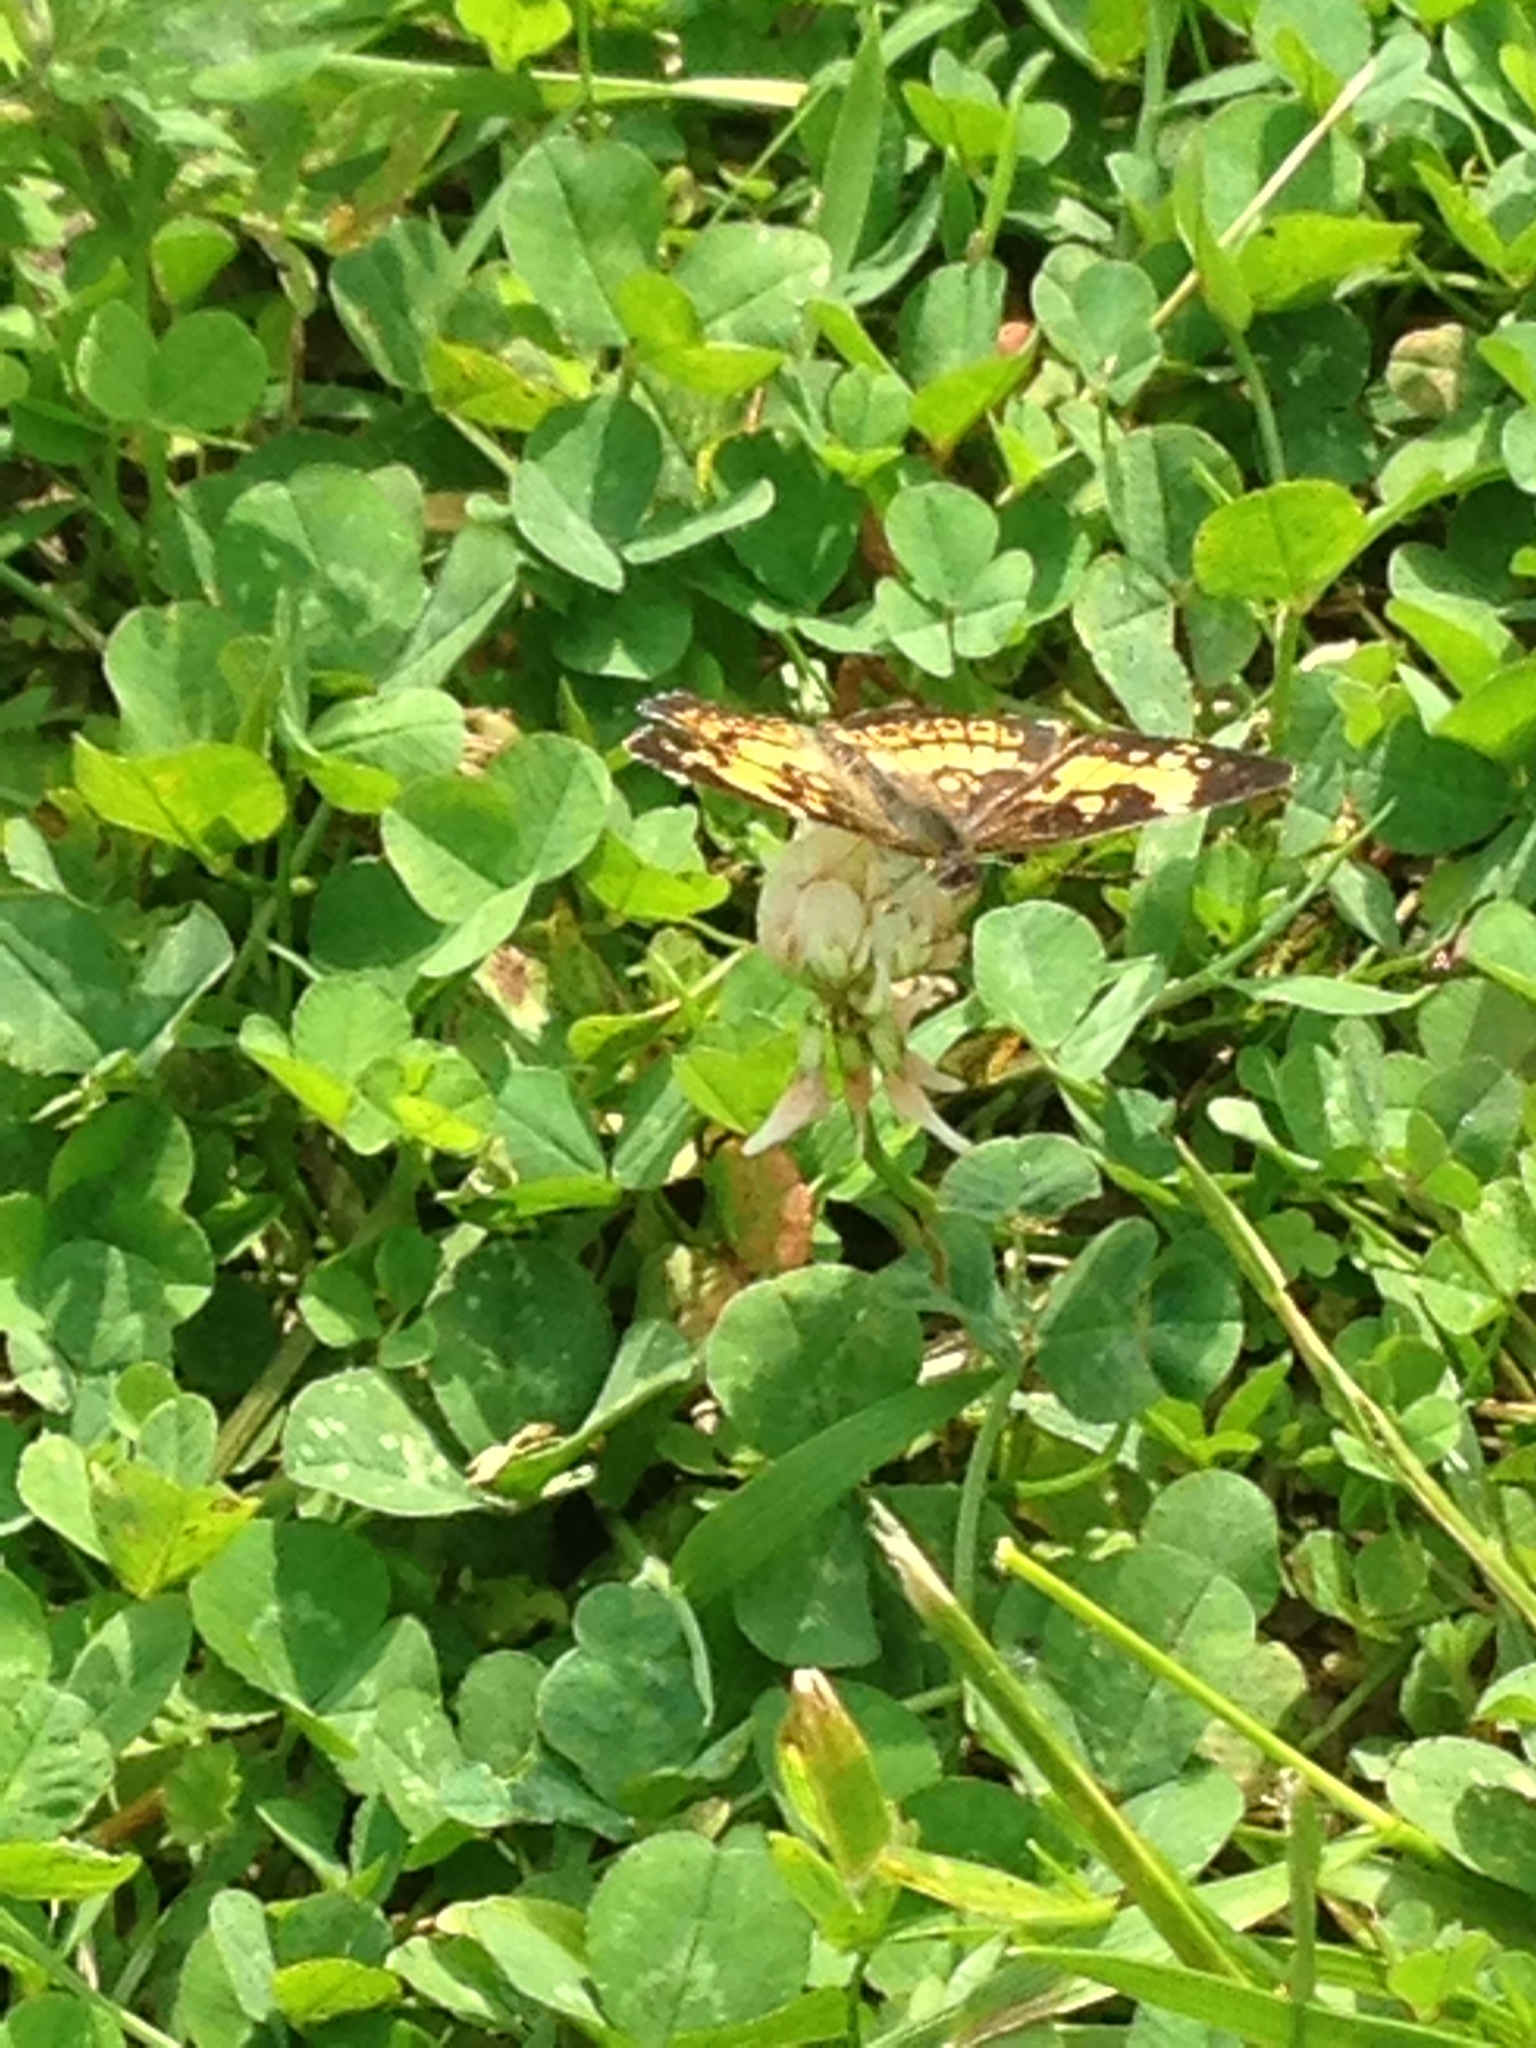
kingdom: Animalia
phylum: Arthropoda
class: Insecta
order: Lepidoptera
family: Nymphalidae
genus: Chlosyne
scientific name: Chlosyne nycteis
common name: Silvery checkerspot
